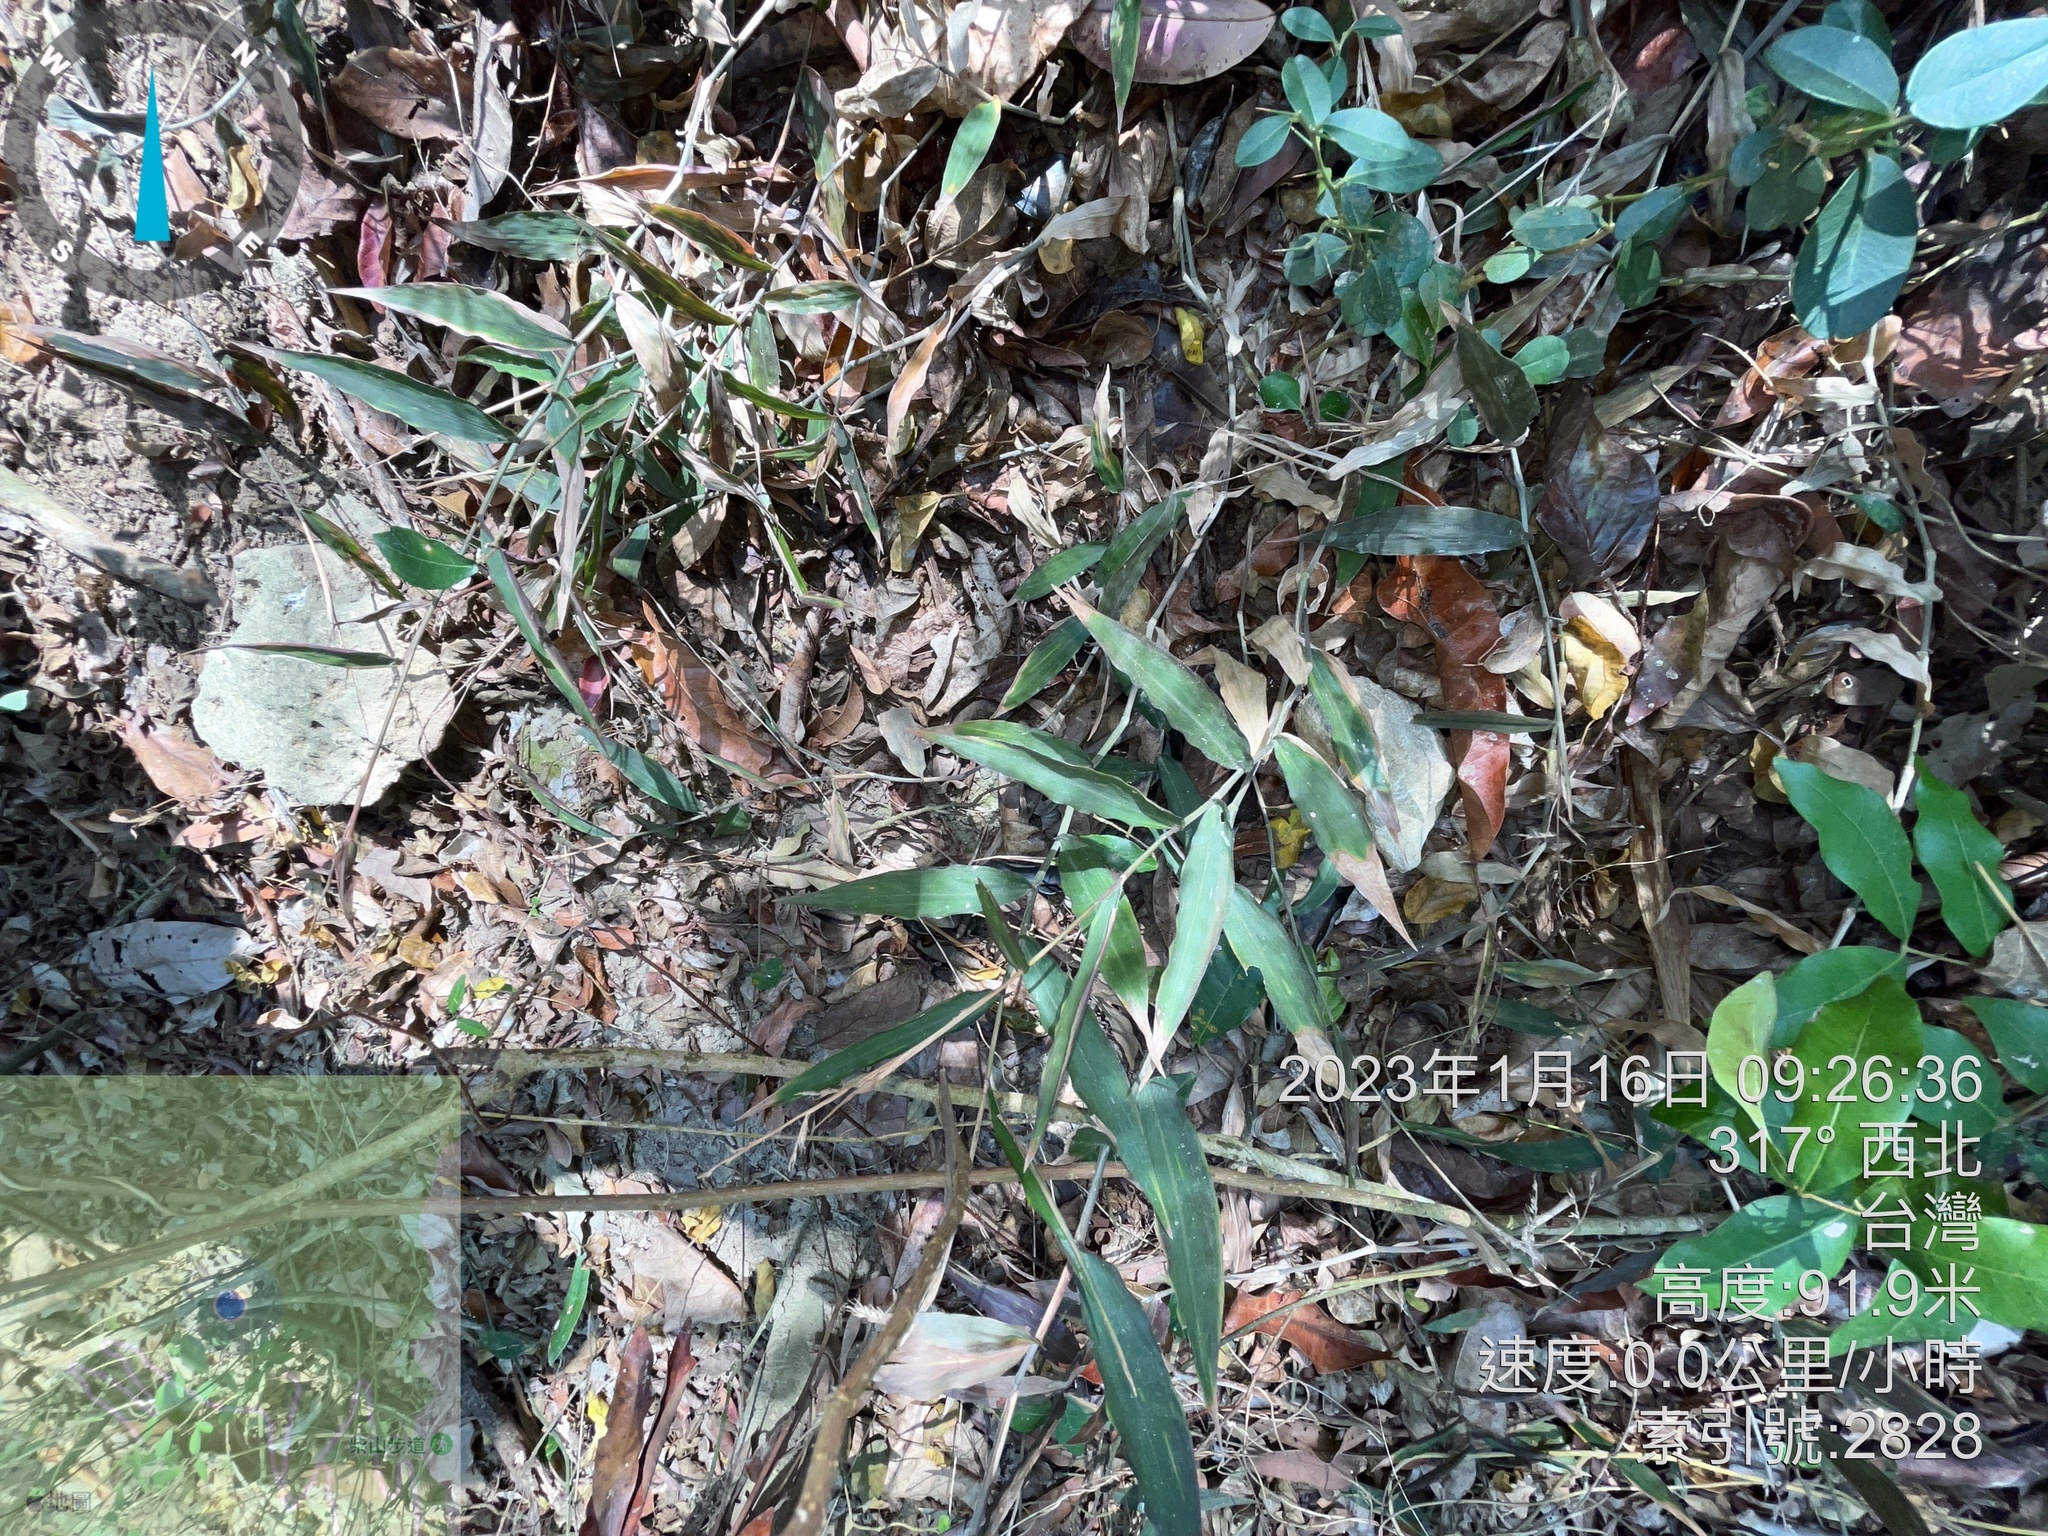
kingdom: Plantae
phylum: Tracheophyta
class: Liliopsida
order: Poales
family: Poaceae
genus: Oplismenus
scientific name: Oplismenus compositus
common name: Running mountain grass
